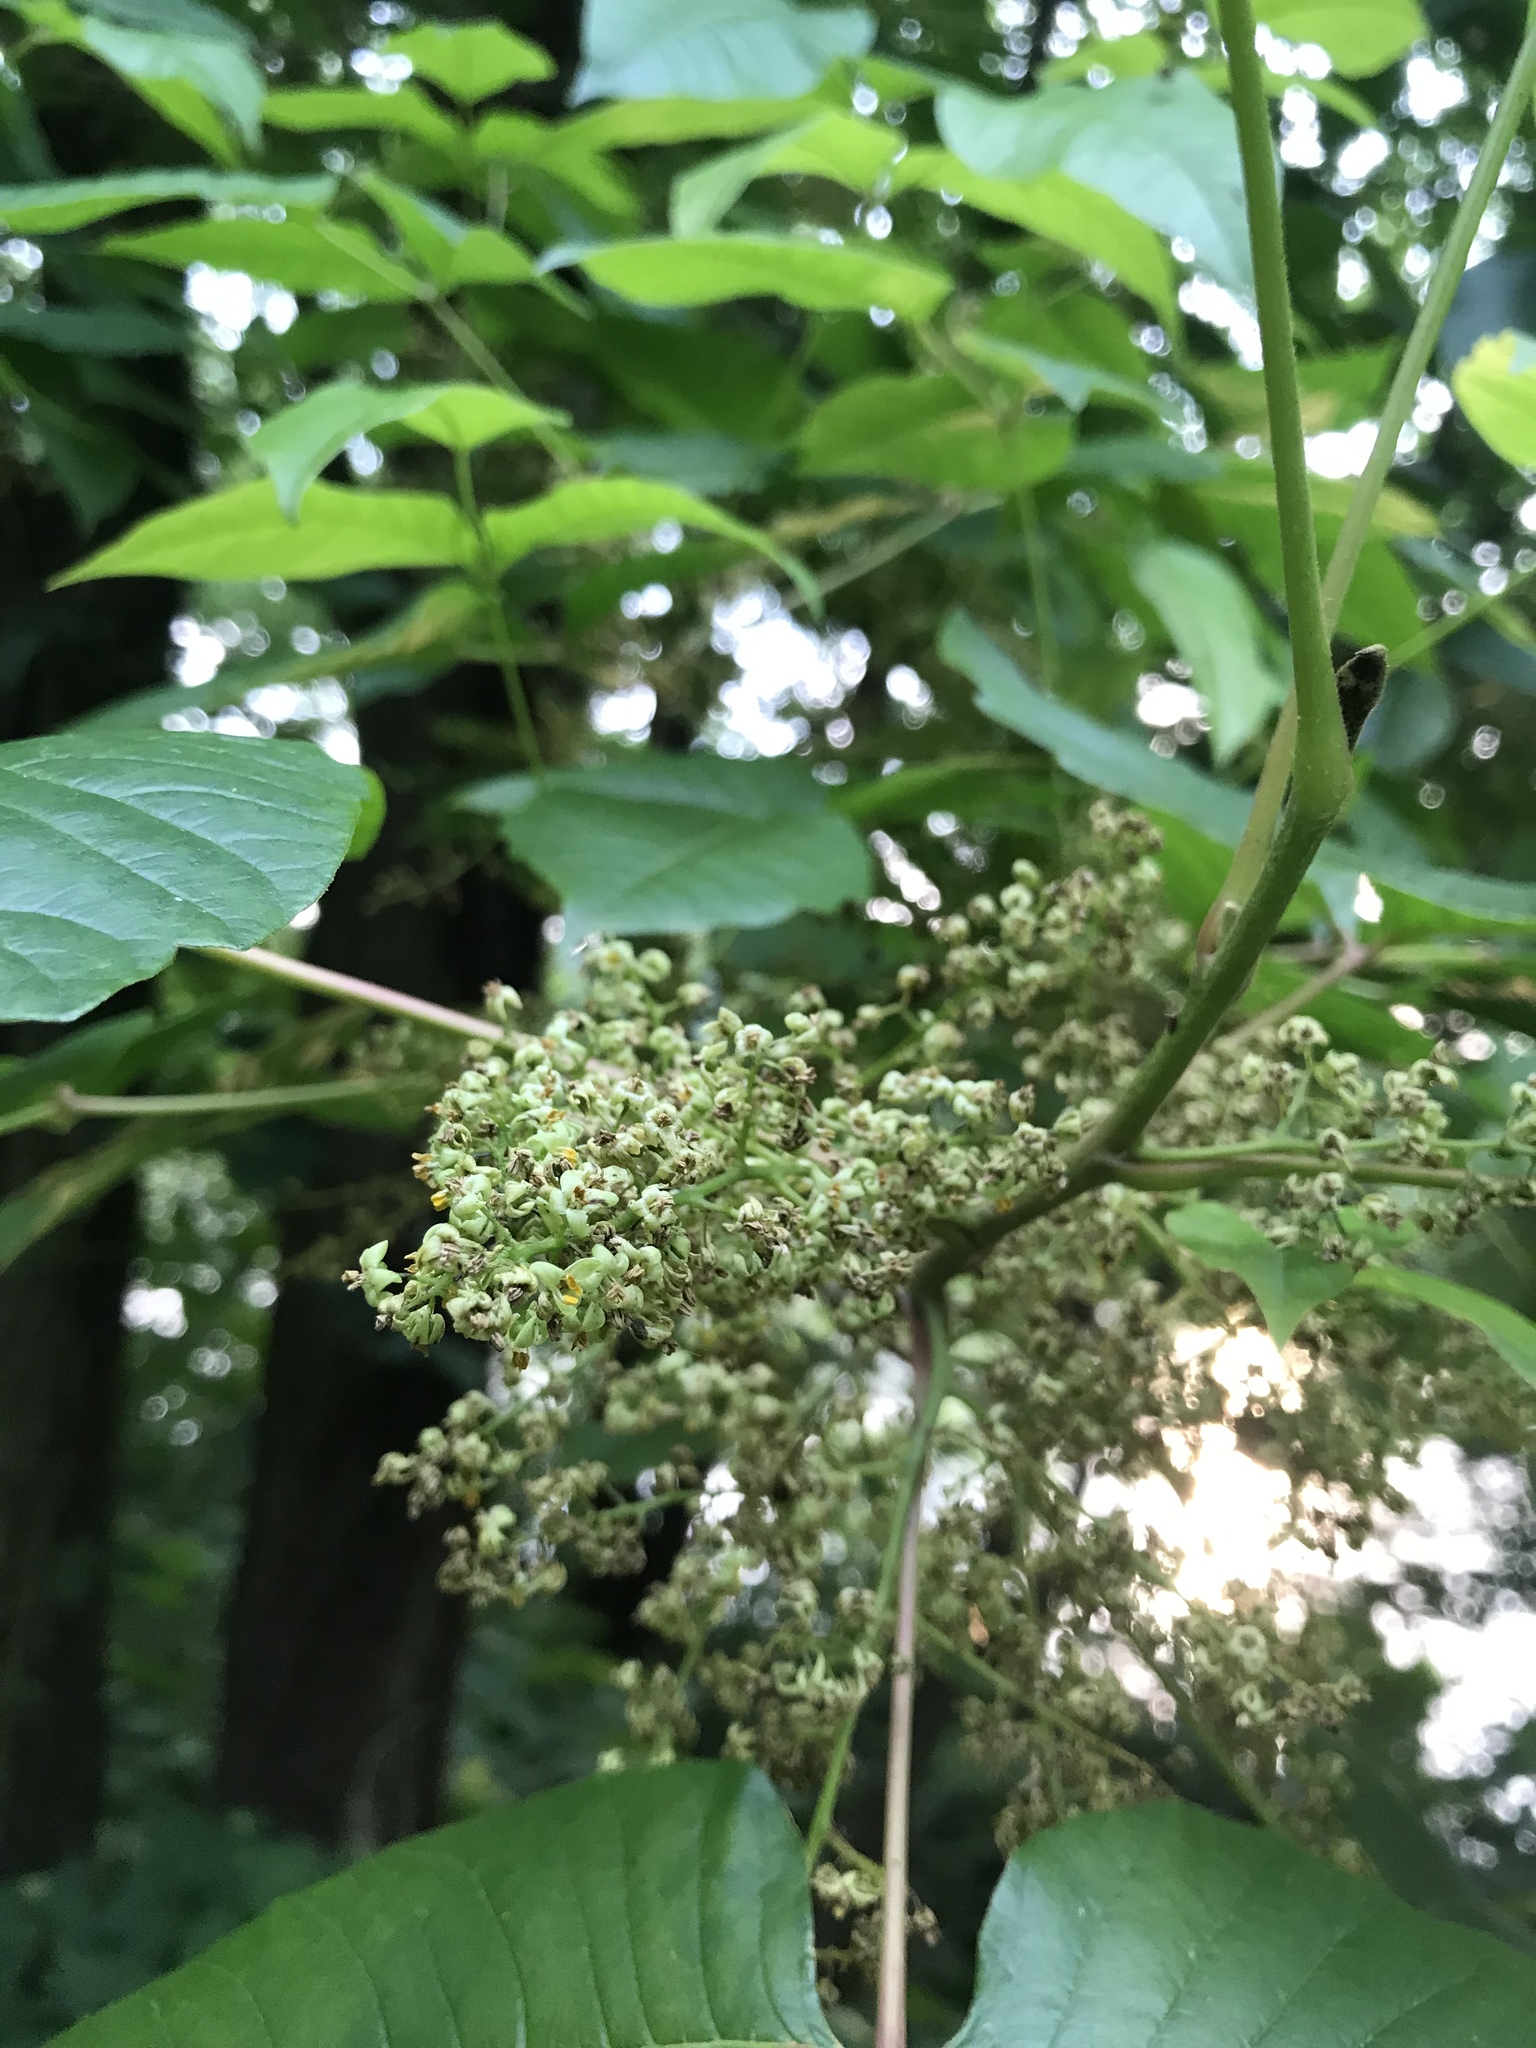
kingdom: Plantae
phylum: Tracheophyta
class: Magnoliopsida
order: Sapindales
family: Anacardiaceae
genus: Toxicodendron
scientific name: Toxicodendron radicans
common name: Poison ivy
